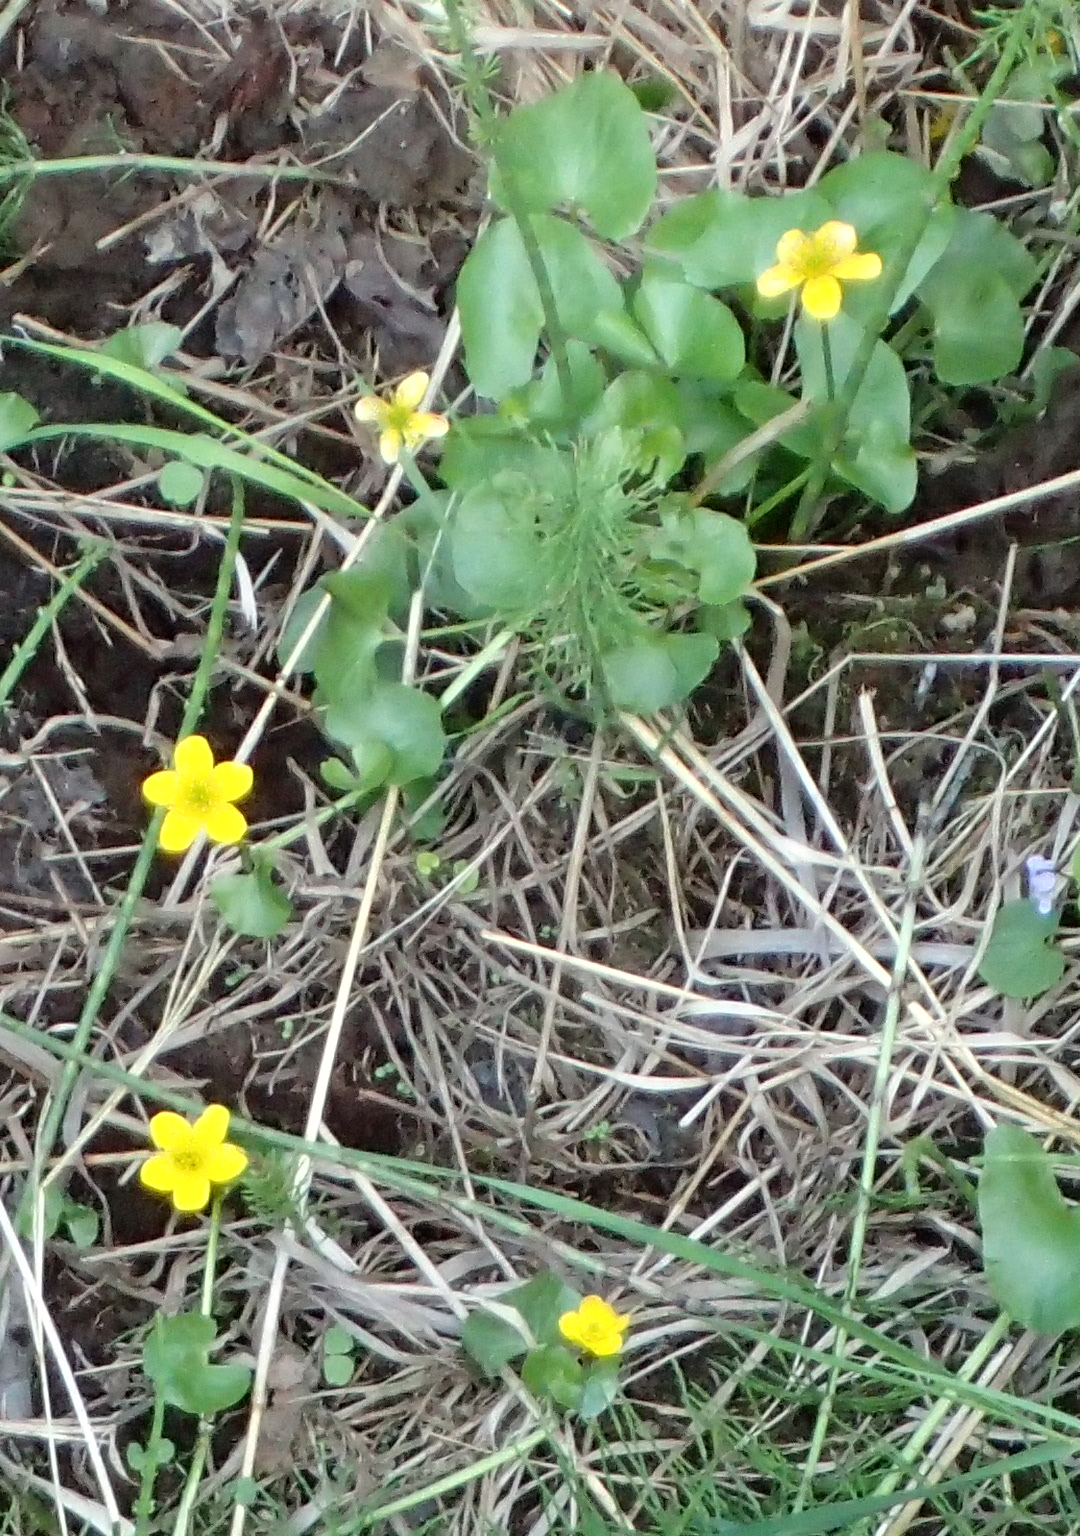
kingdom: Plantae
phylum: Tracheophyta
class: Magnoliopsida
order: Ranunculales
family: Ranunculaceae
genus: Caltha
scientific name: Caltha palustris
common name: Marsh marigold
